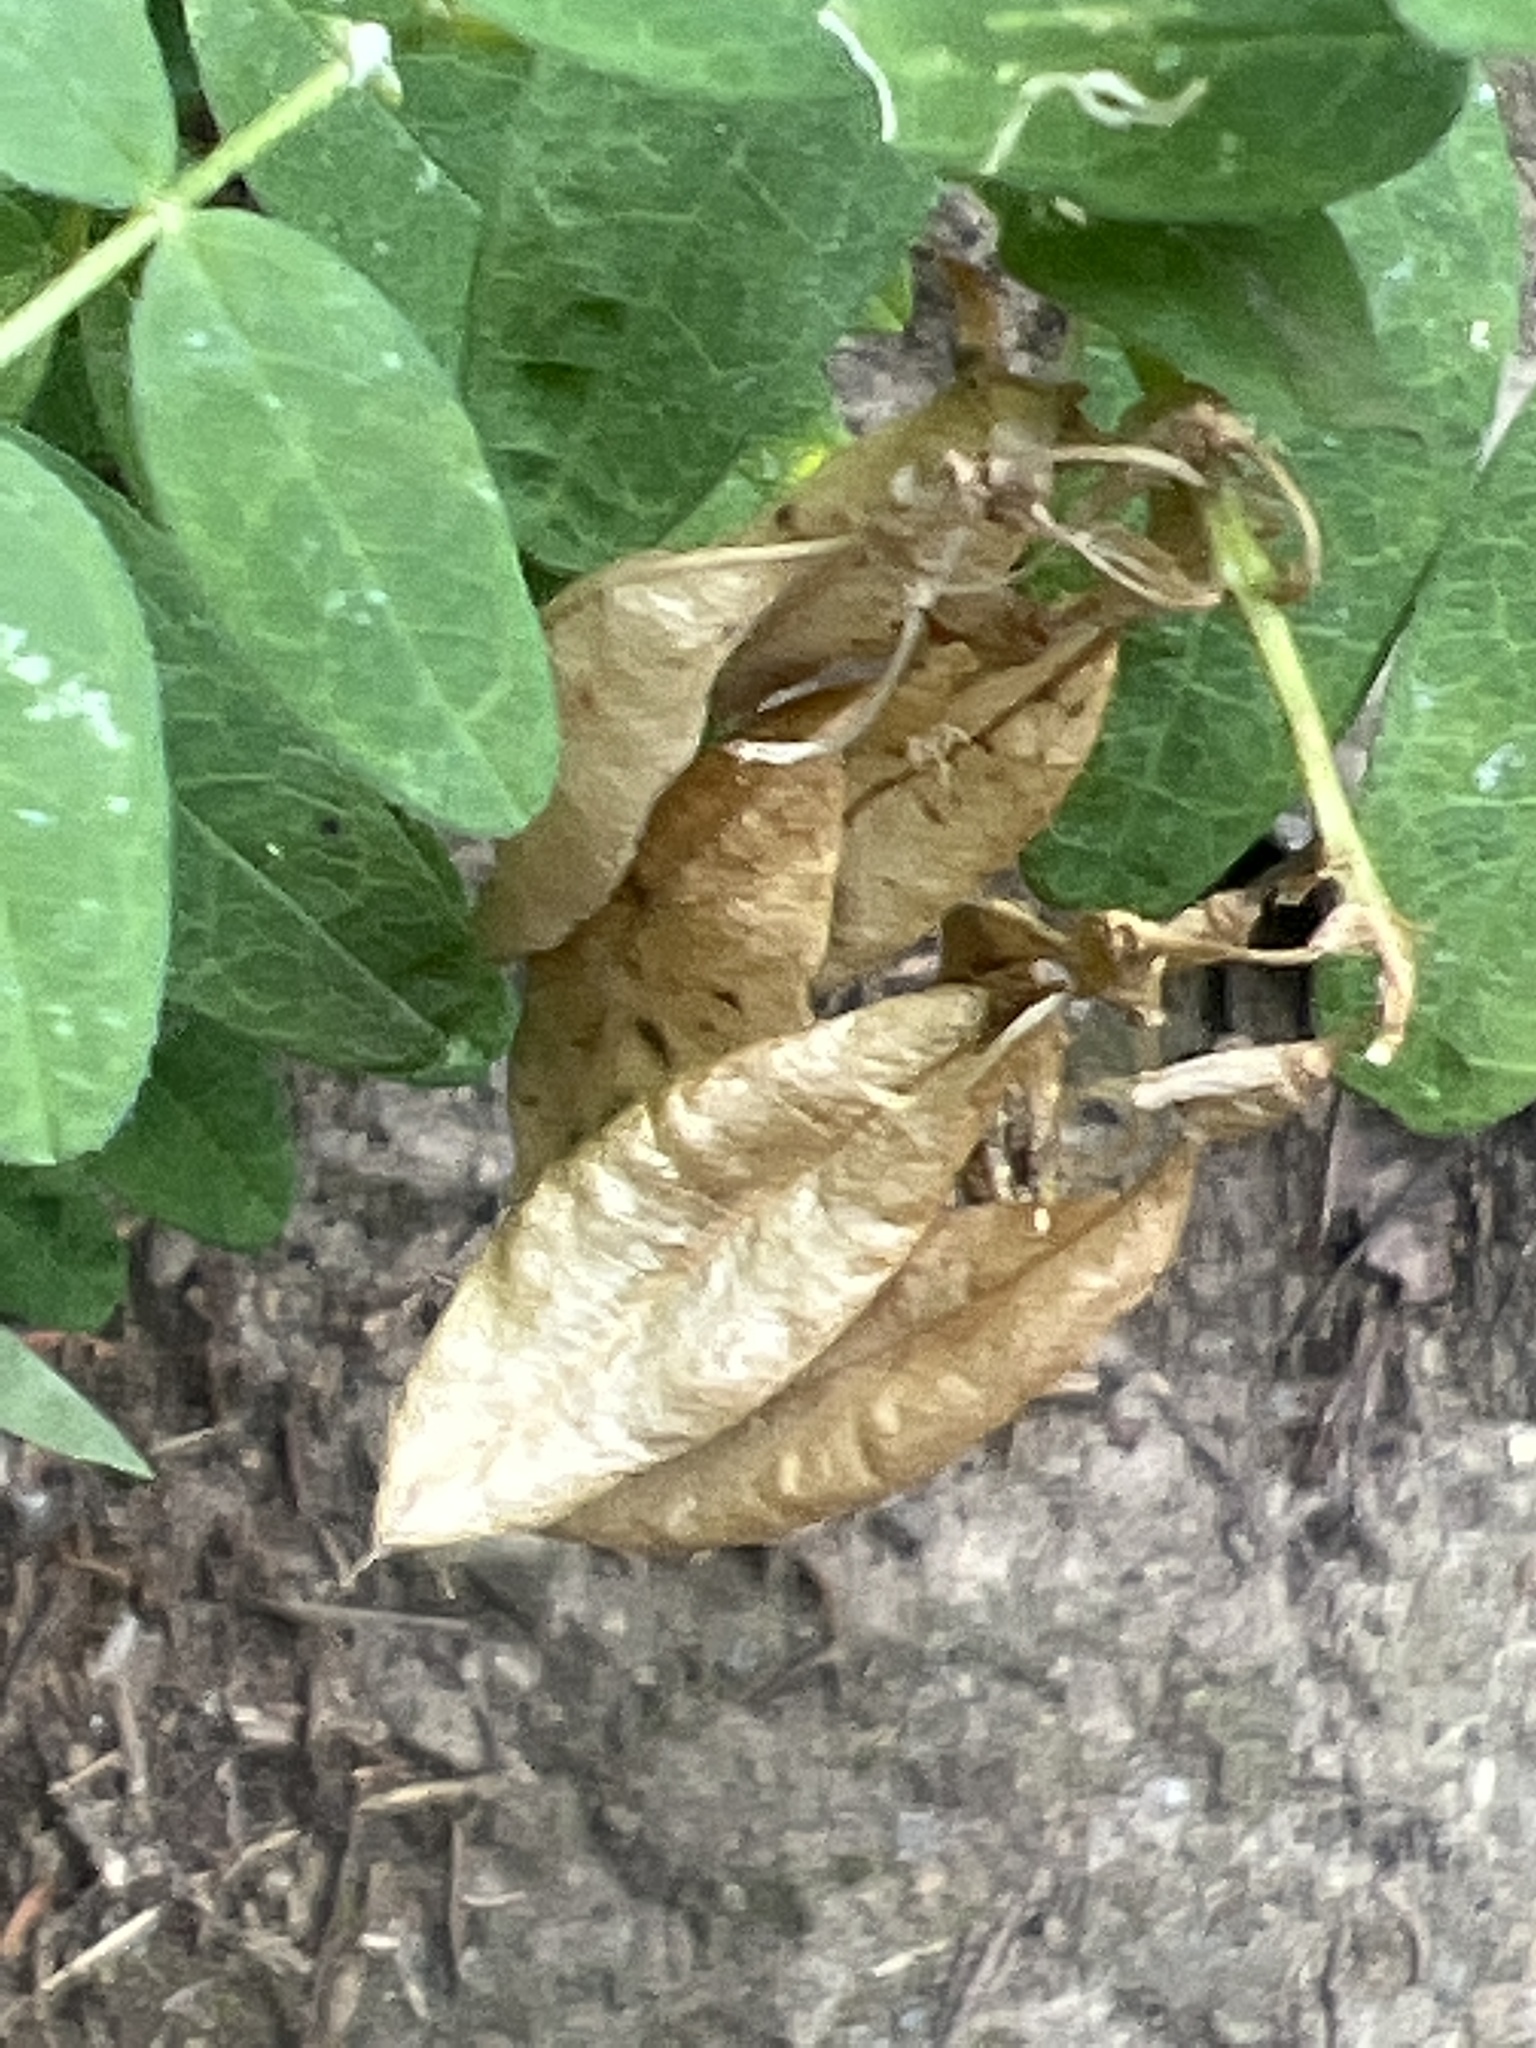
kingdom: Plantae
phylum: Tracheophyta
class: Magnoliopsida
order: Fabales
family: Fabaceae
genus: Astragalus
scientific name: Astragalus americanus
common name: American milk-vetch
